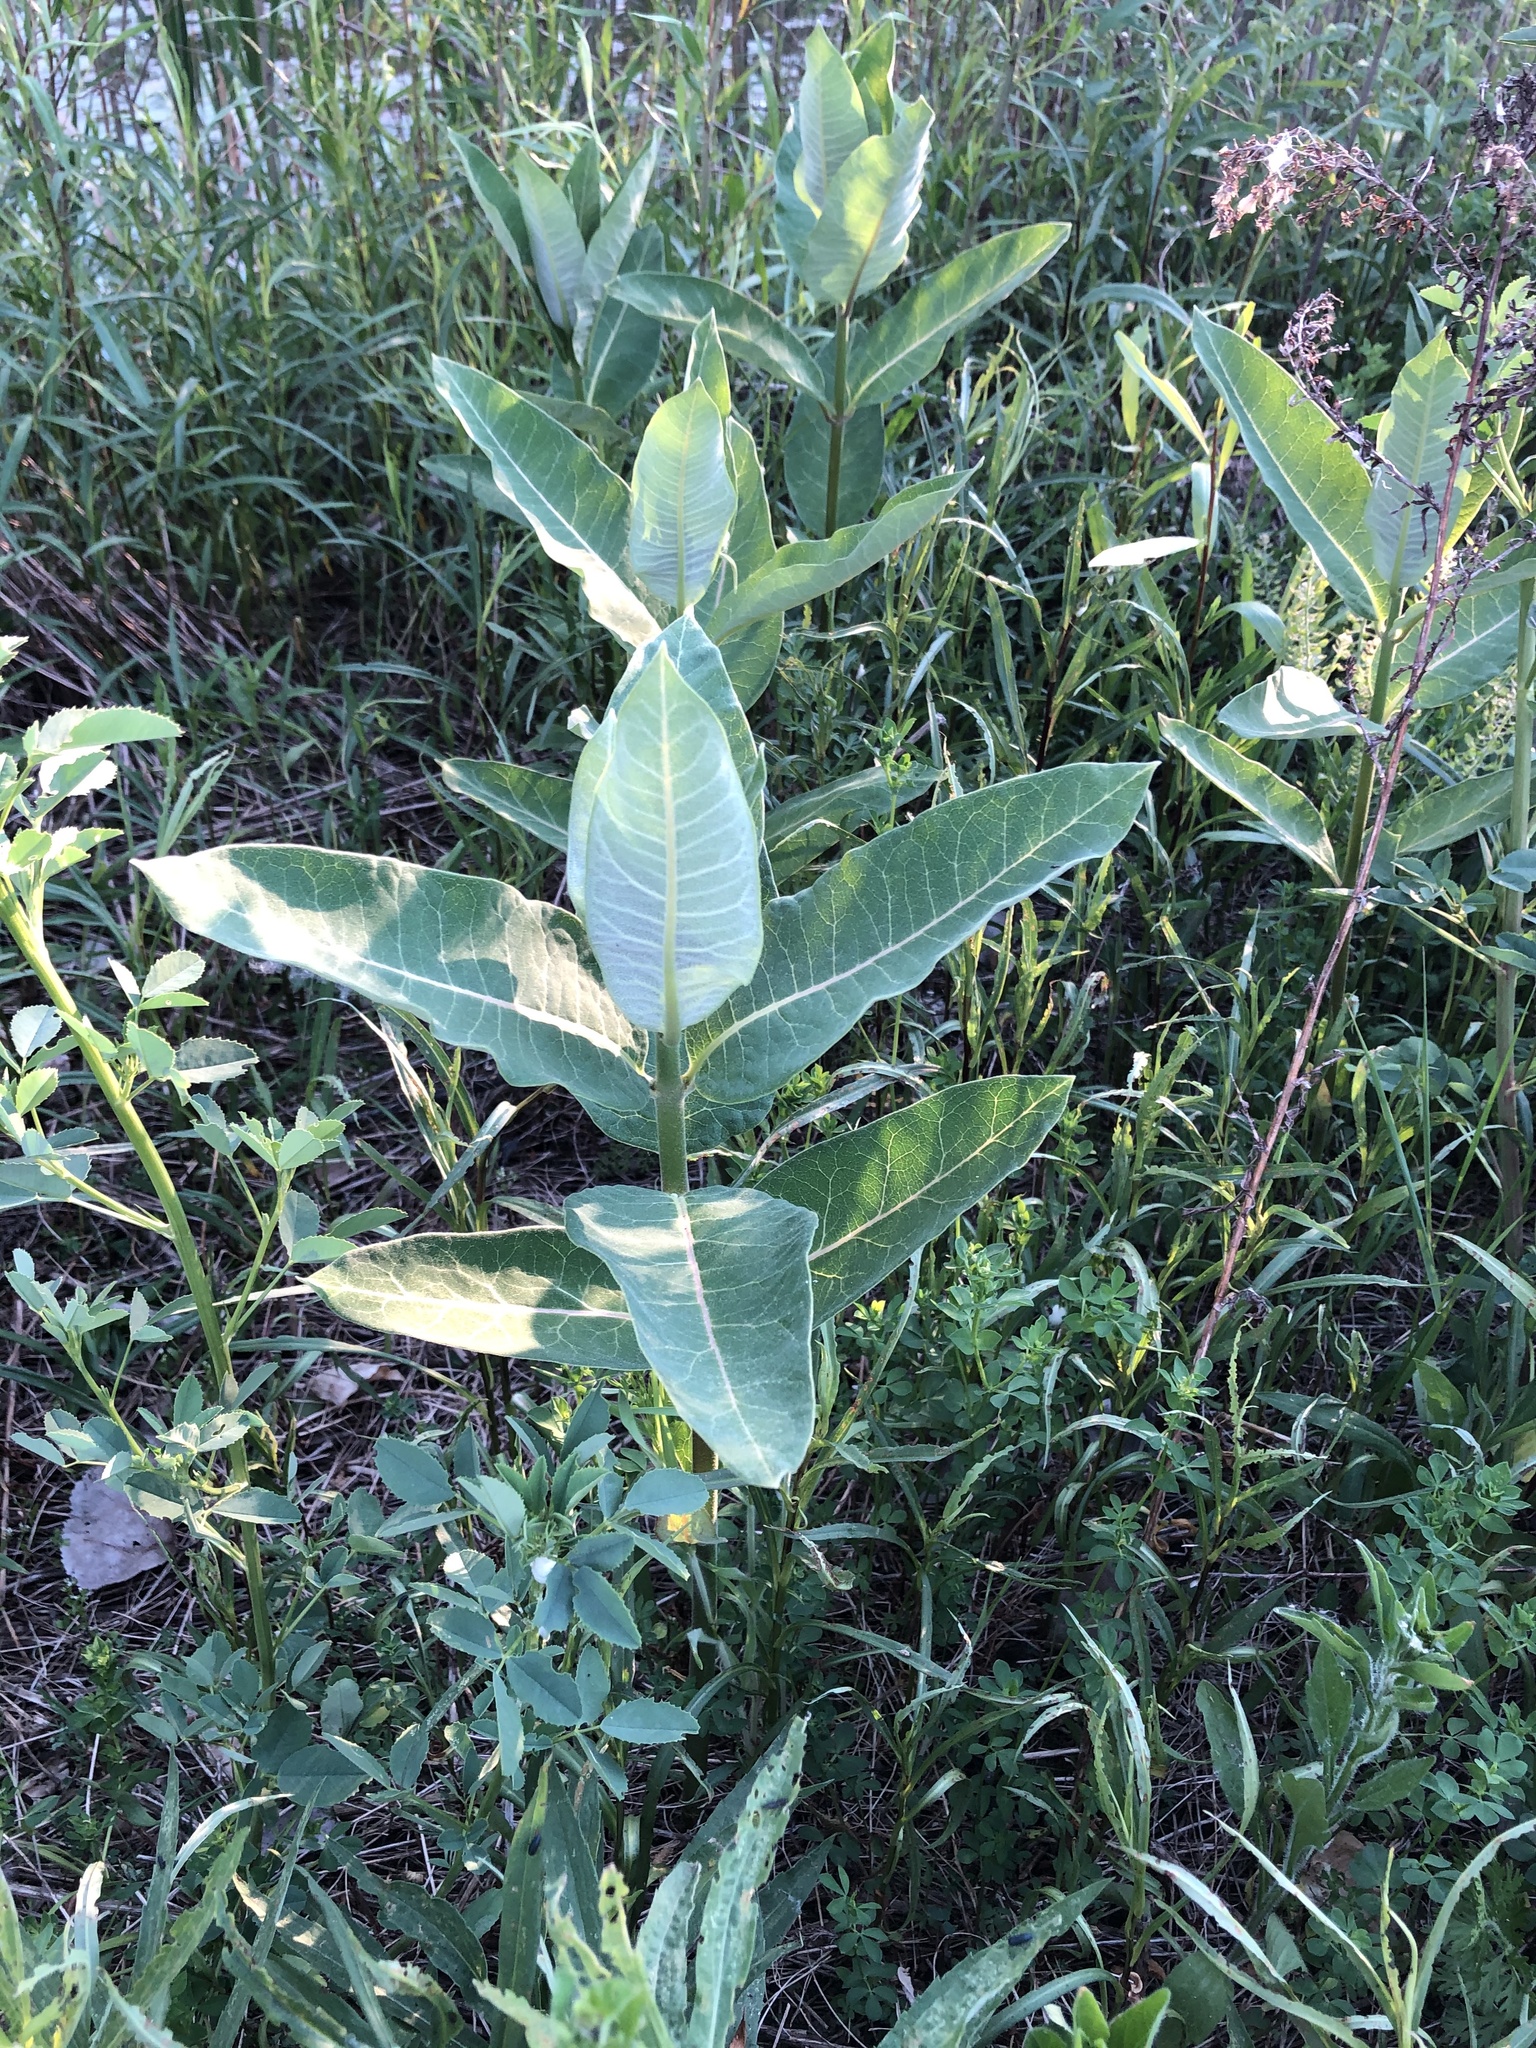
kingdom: Plantae
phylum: Tracheophyta
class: Magnoliopsida
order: Gentianales
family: Apocynaceae
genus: Asclepias
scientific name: Asclepias syriaca
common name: Common milkweed
